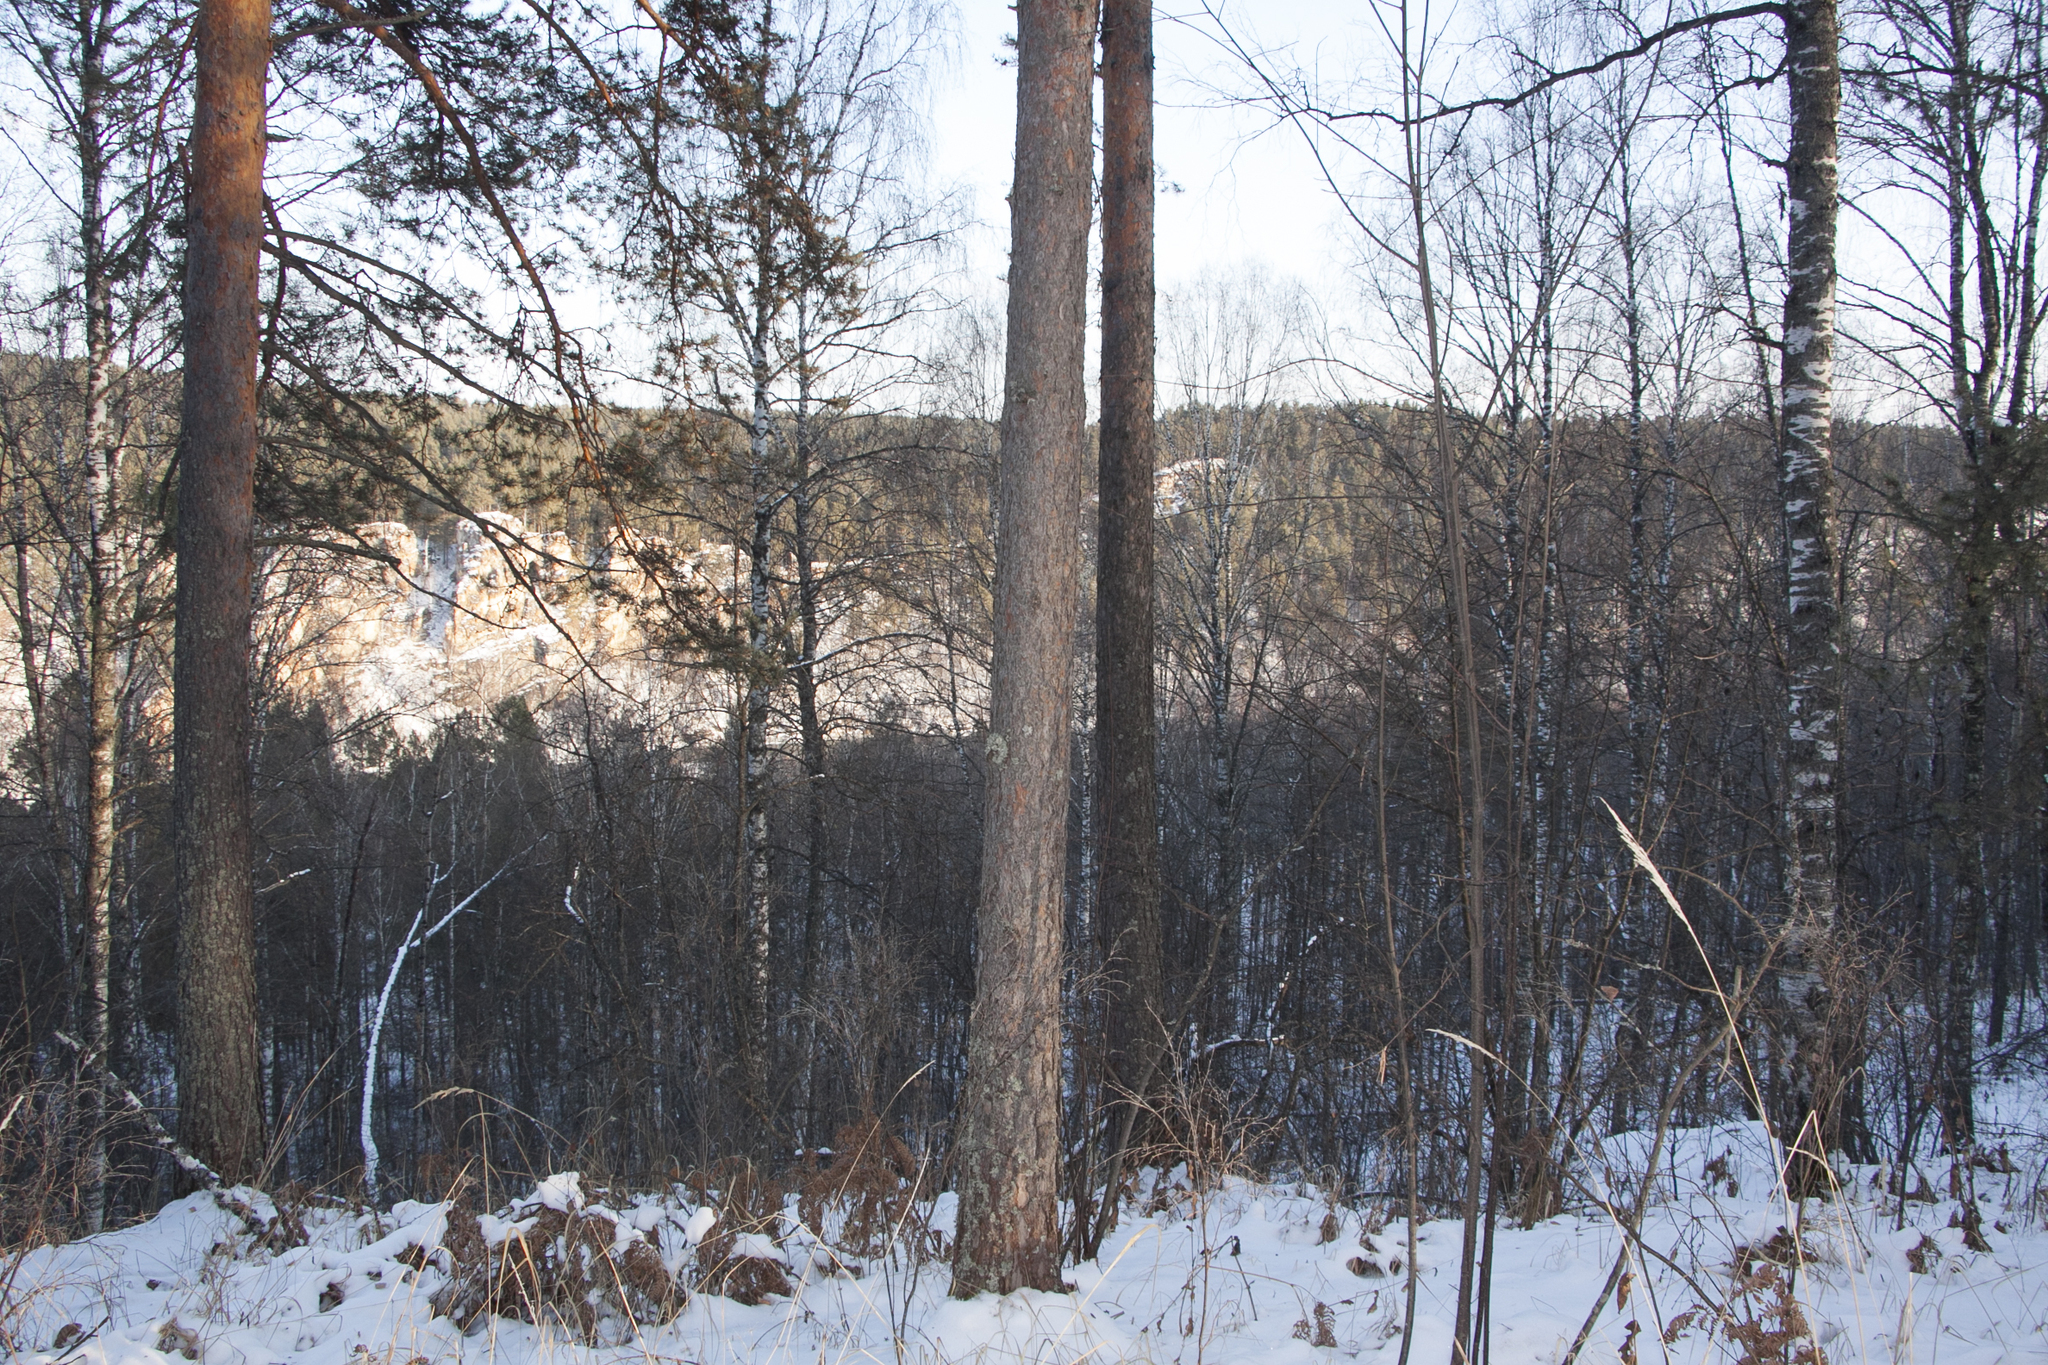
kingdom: Plantae
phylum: Tracheophyta
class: Pinopsida
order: Pinales
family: Pinaceae
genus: Pinus
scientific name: Pinus sylvestris
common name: Scots pine
